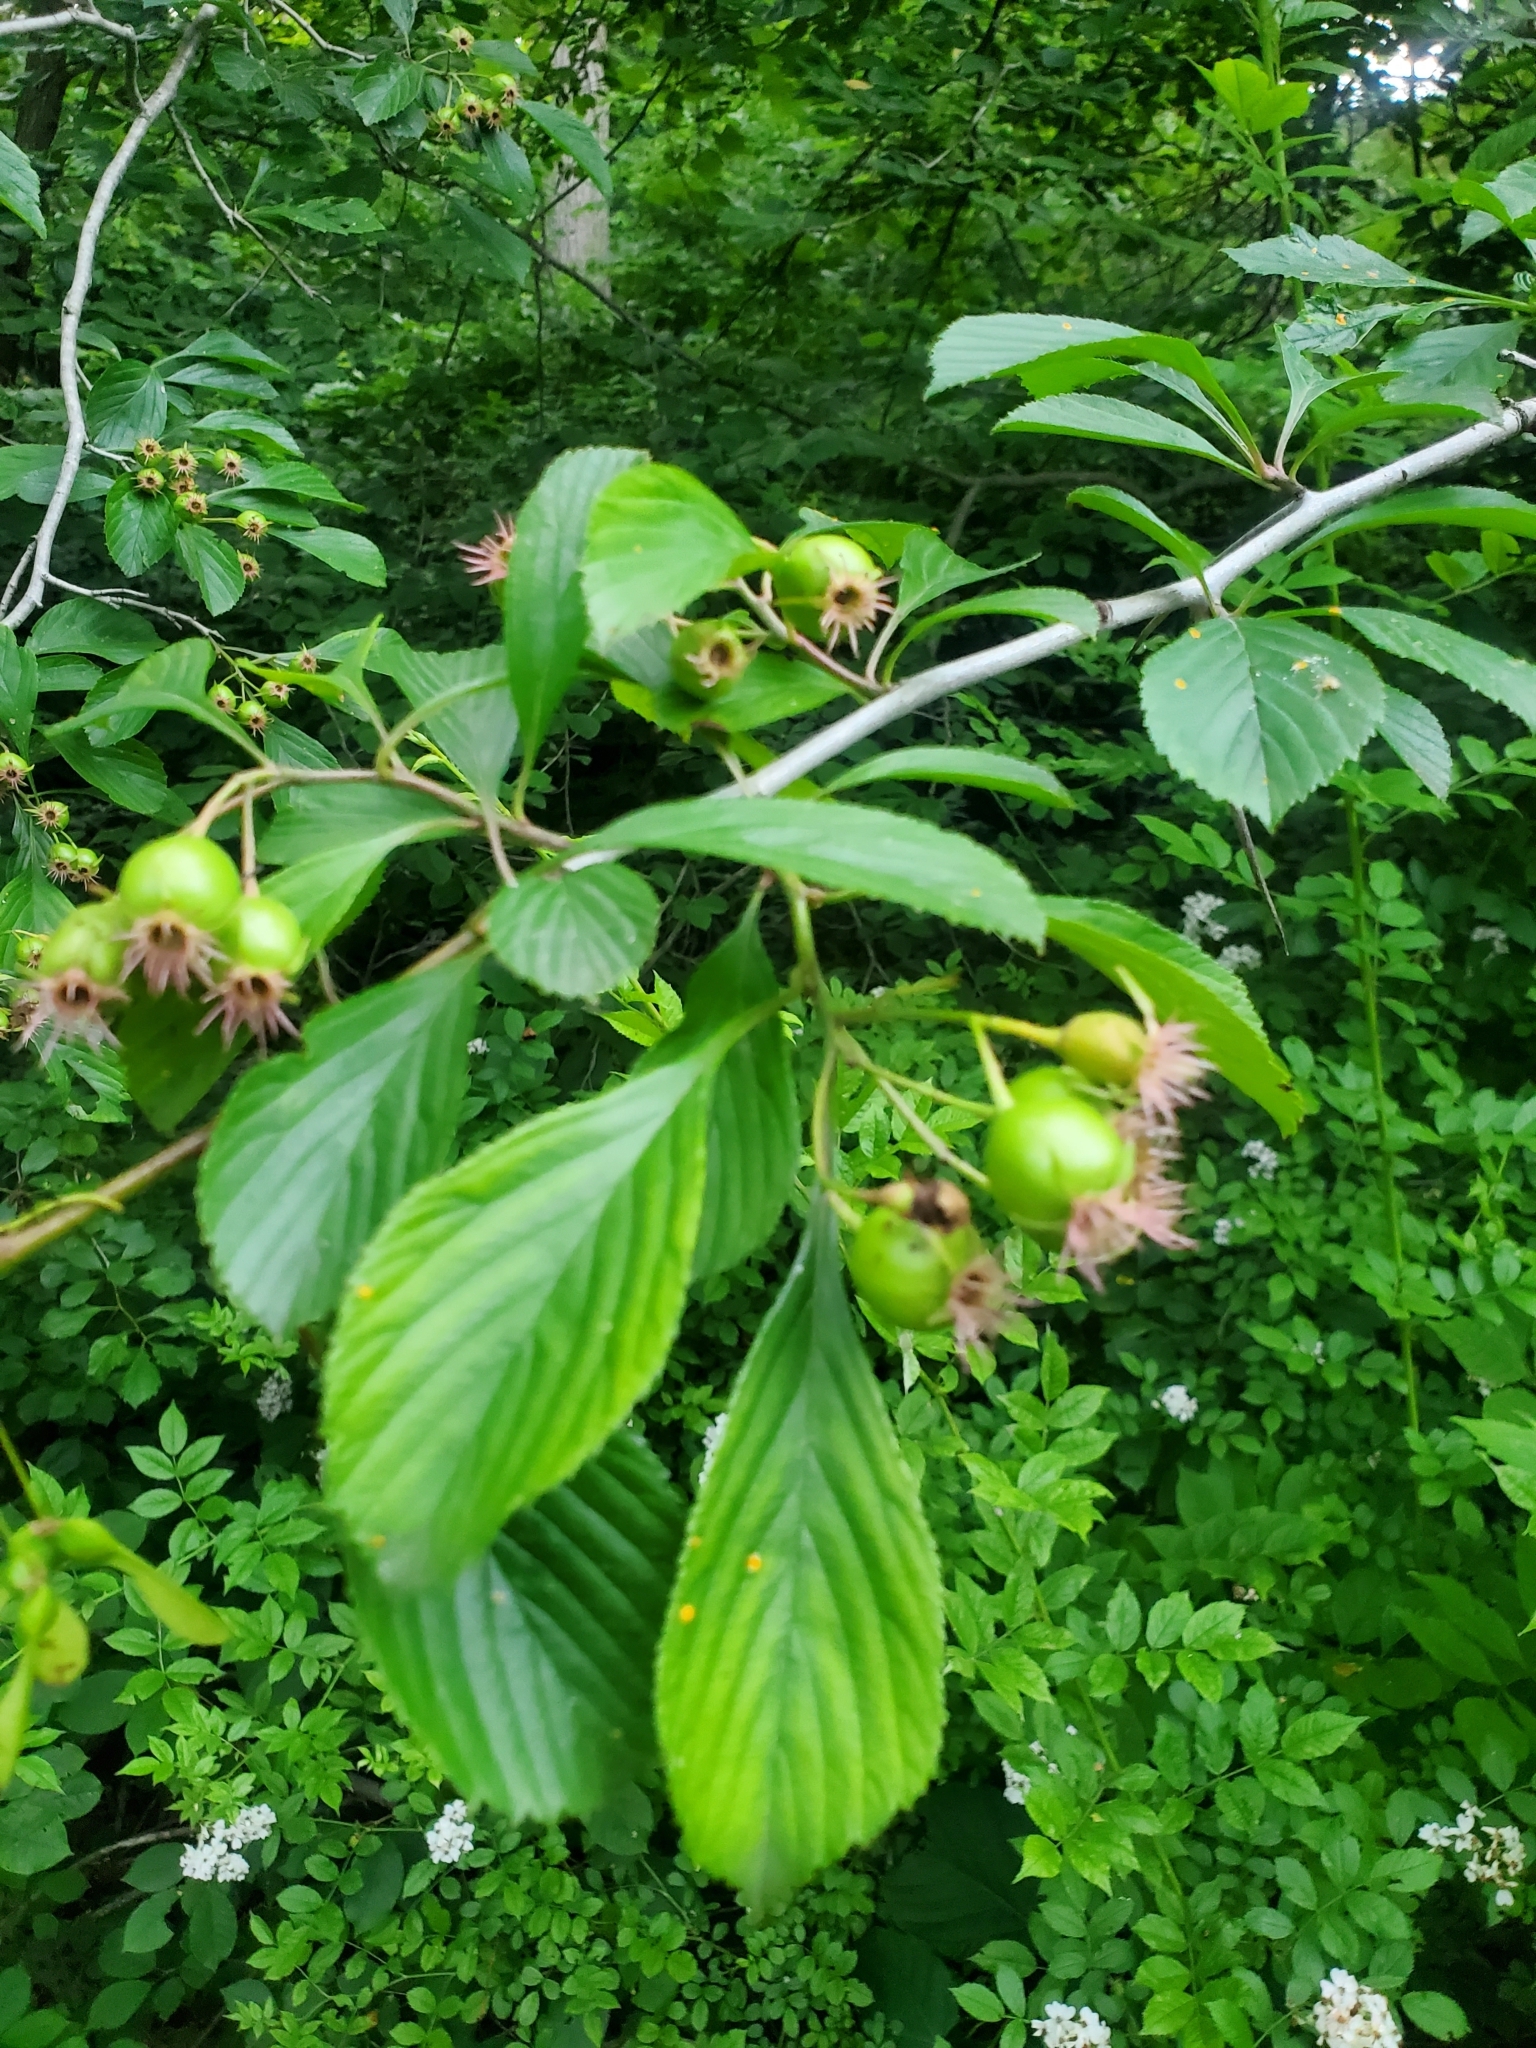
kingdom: Plantae
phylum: Tracheophyta
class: Magnoliopsida
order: Rosales
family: Rosaceae
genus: Crataegus
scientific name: Crataegus punctata
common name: Dotted hawthorn
